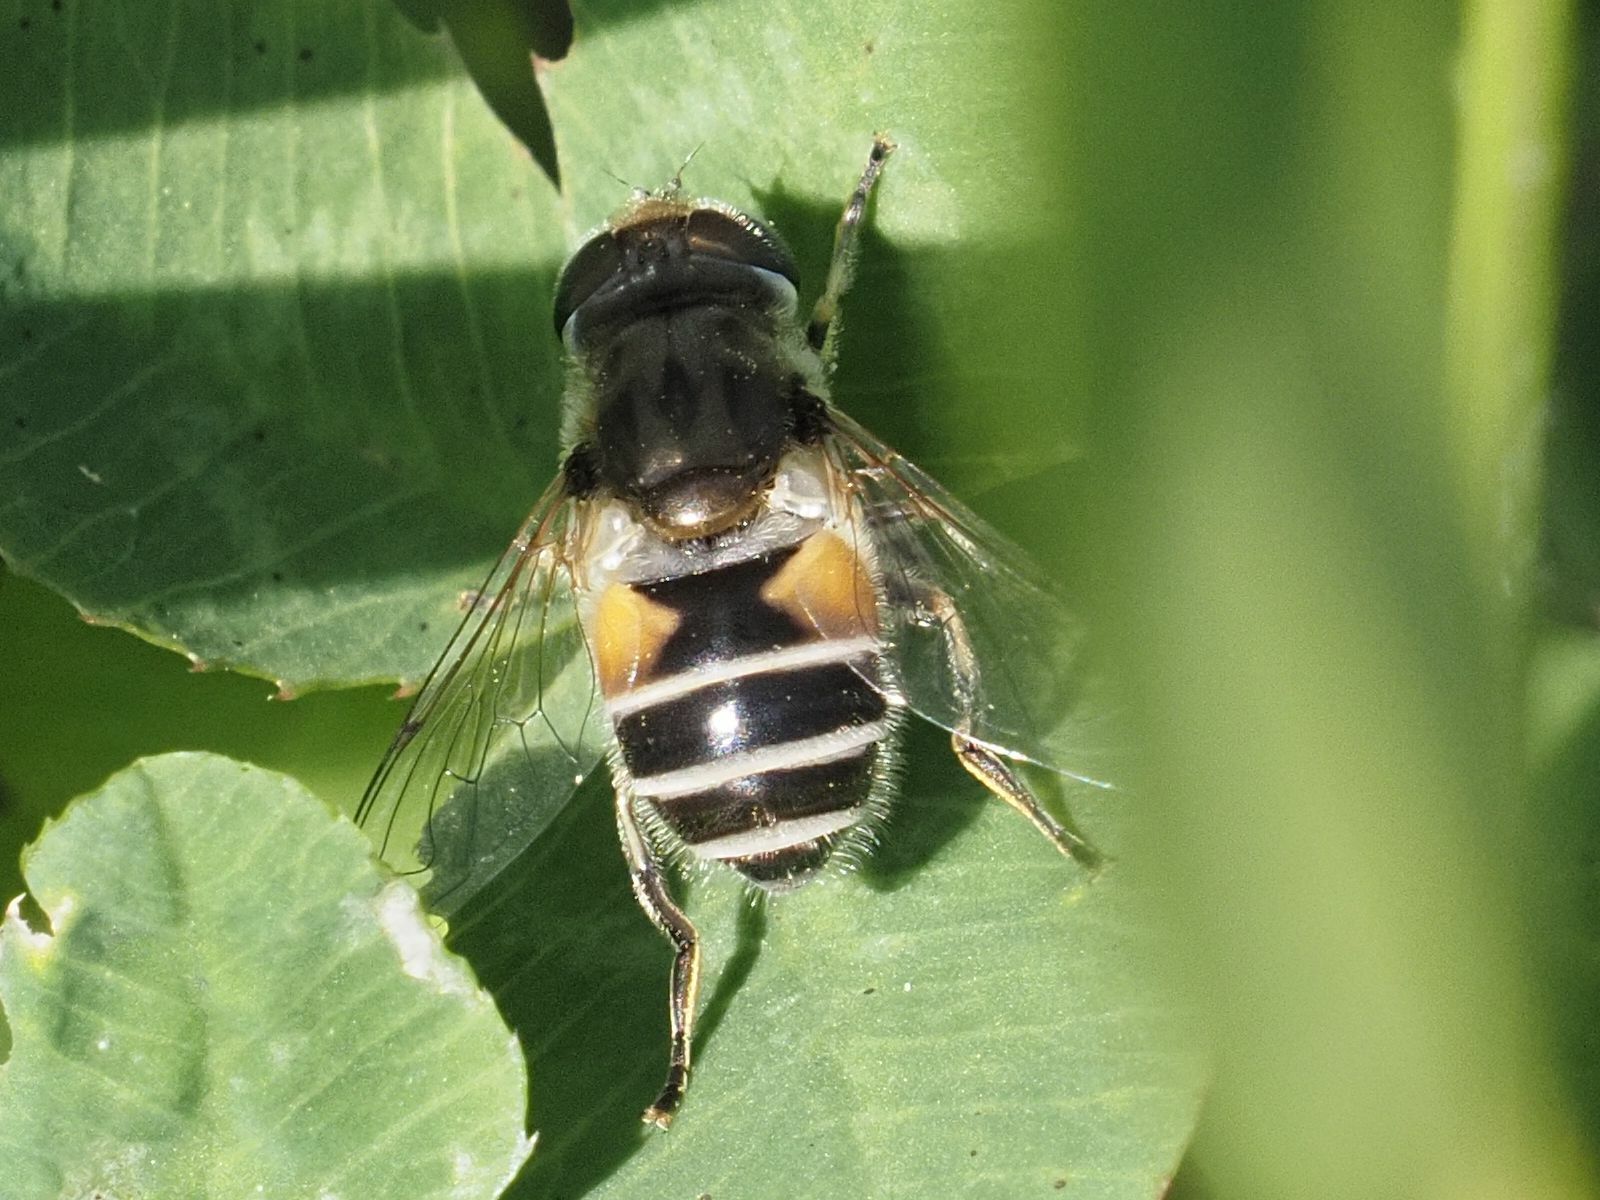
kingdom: Animalia
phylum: Arthropoda
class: Insecta
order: Diptera
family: Syrphidae
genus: Eristalis
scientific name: Eristalis arbustorum
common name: Hover fly
